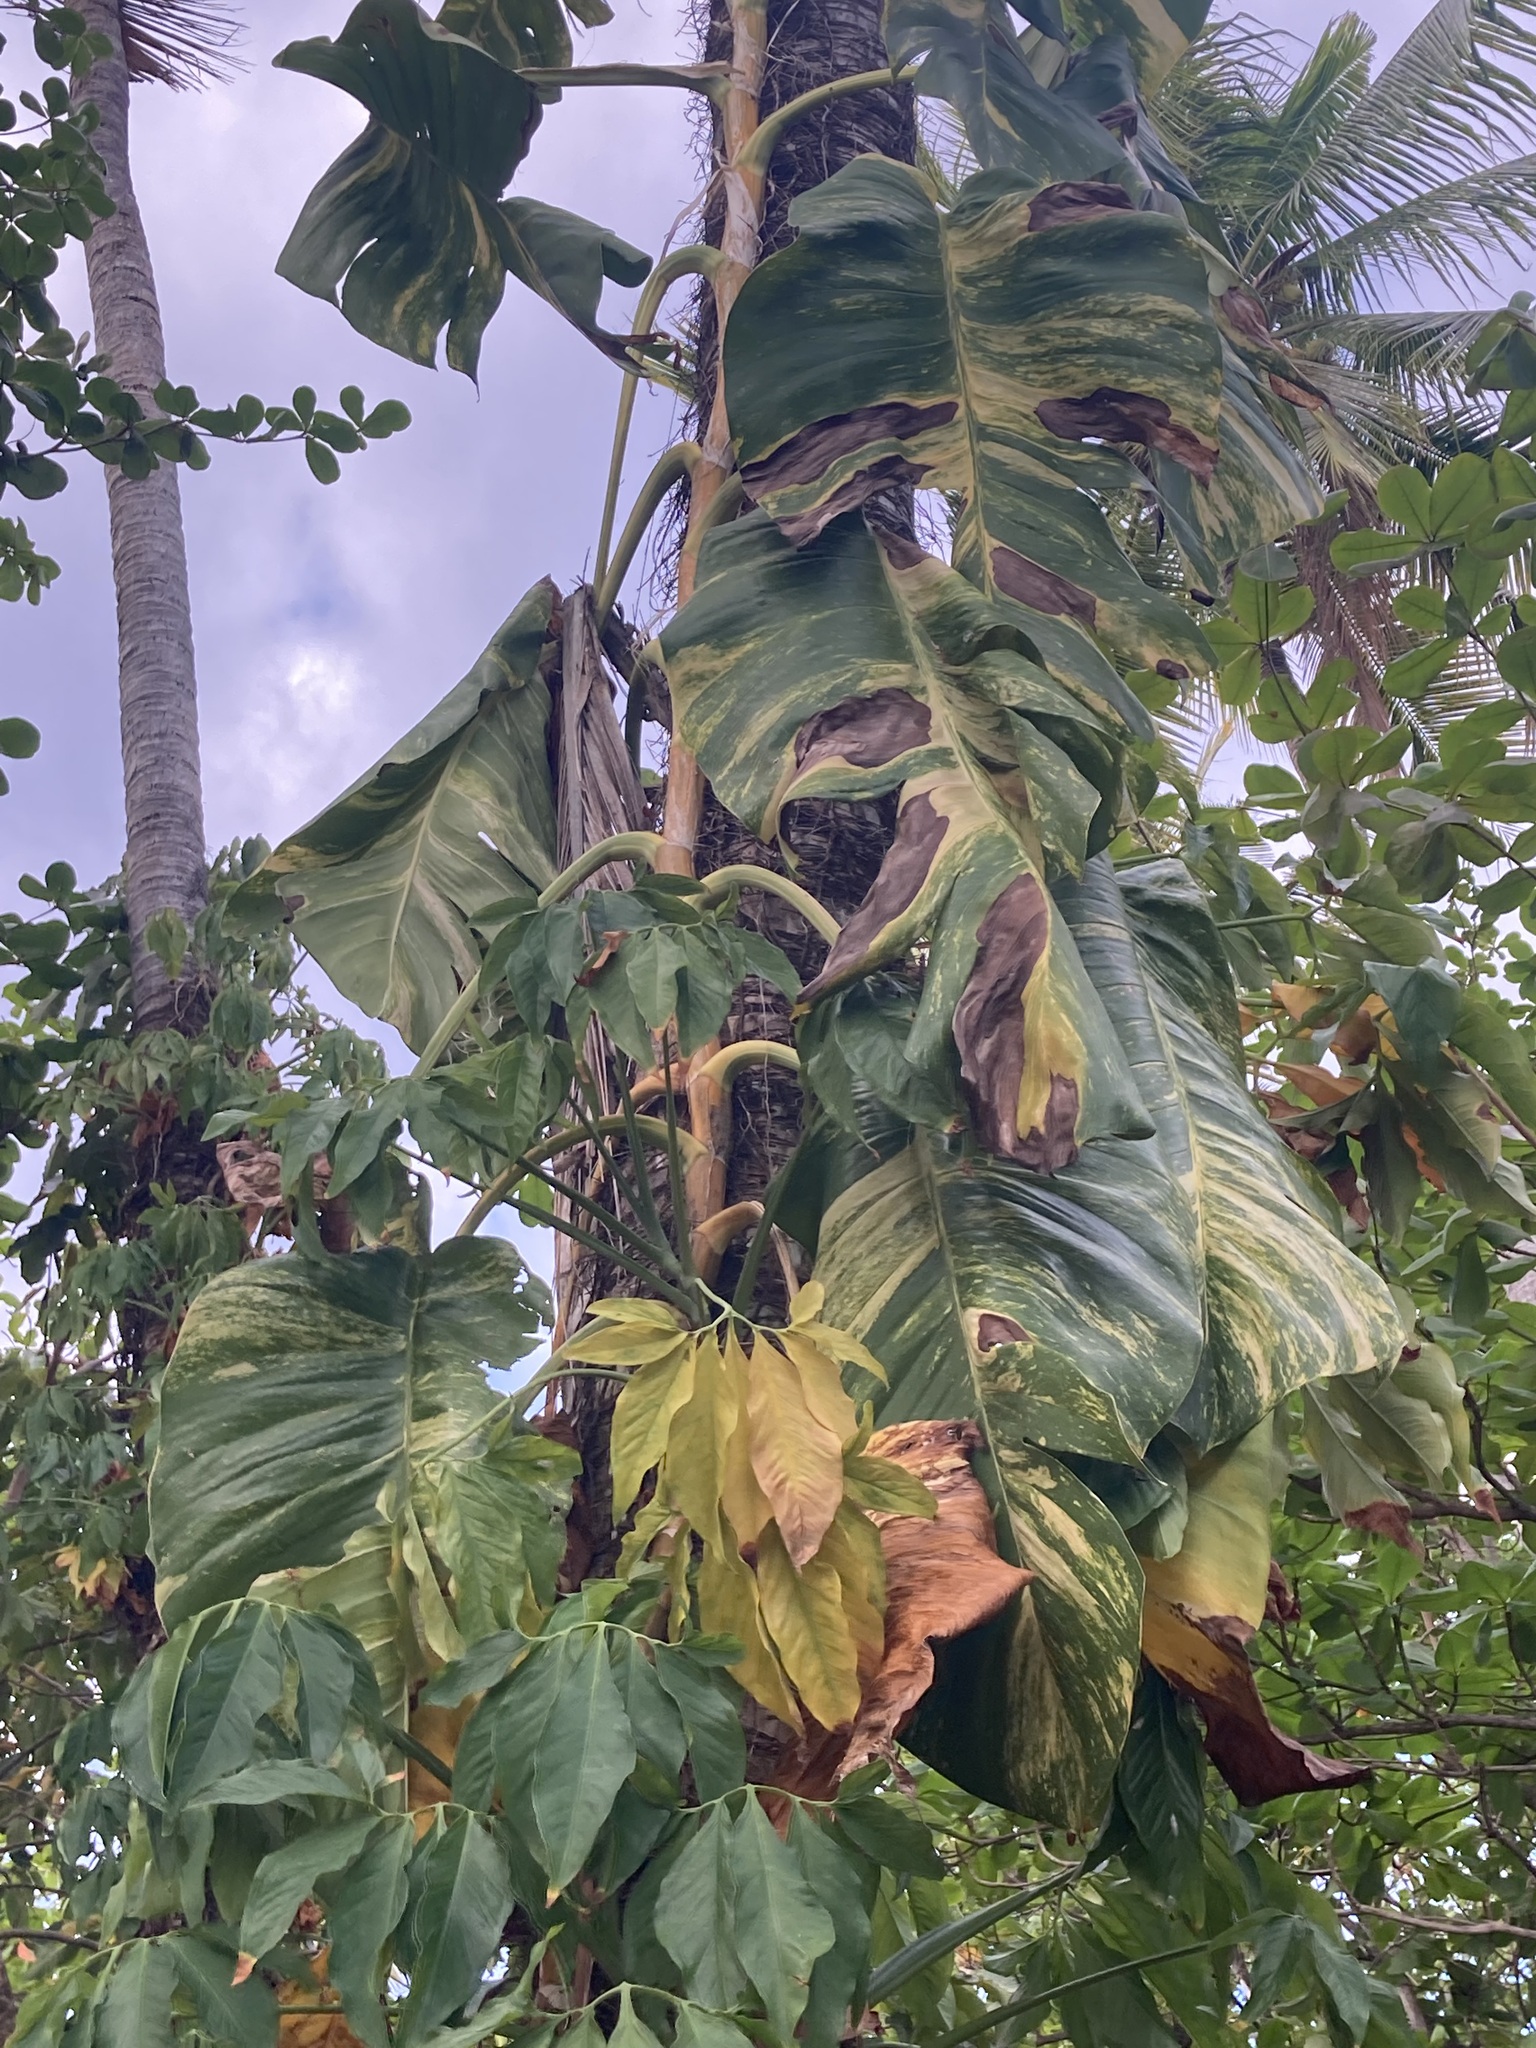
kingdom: Plantae
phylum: Tracheophyta
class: Liliopsida
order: Alismatales
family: Araceae
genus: Epipremnum
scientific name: Epipremnum aureum
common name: Golden hunter's-robe
